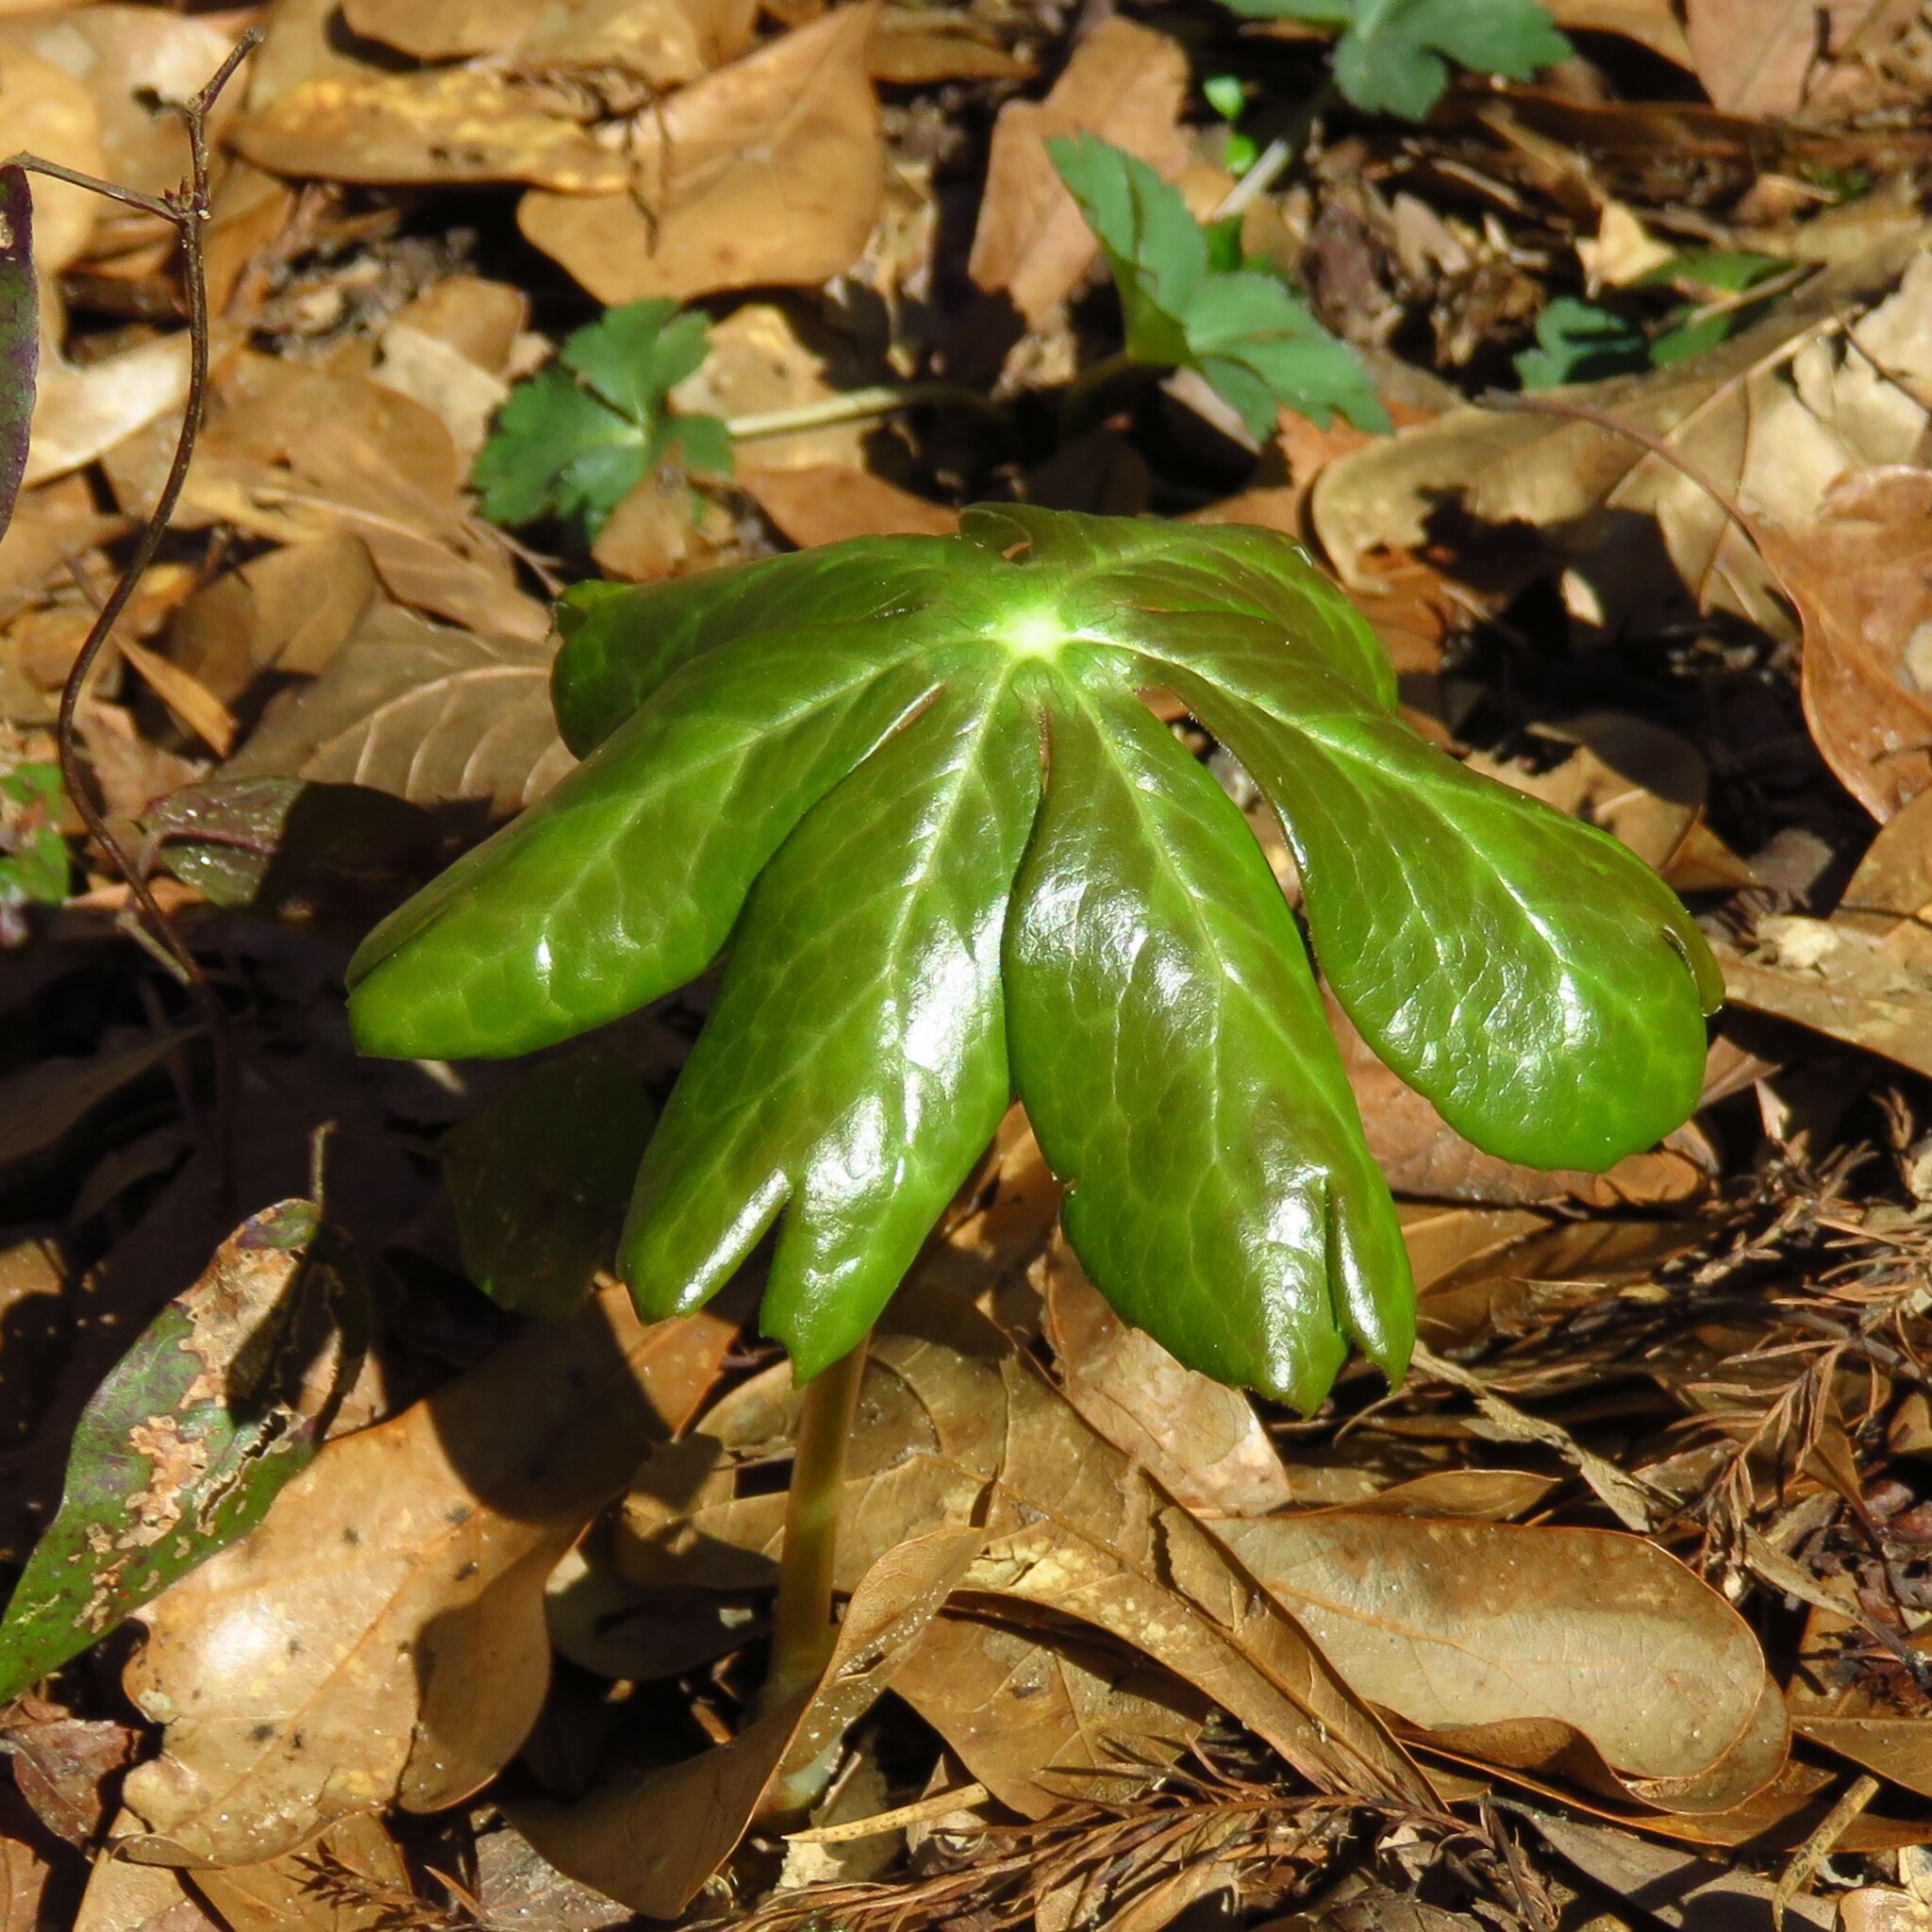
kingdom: Plantae
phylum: Tracheophyta
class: Magnoliopsida
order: Ranunculales
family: Berberidaceae
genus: Podophyllum
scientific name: Podophyllum peltatum
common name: Wild mandrake
